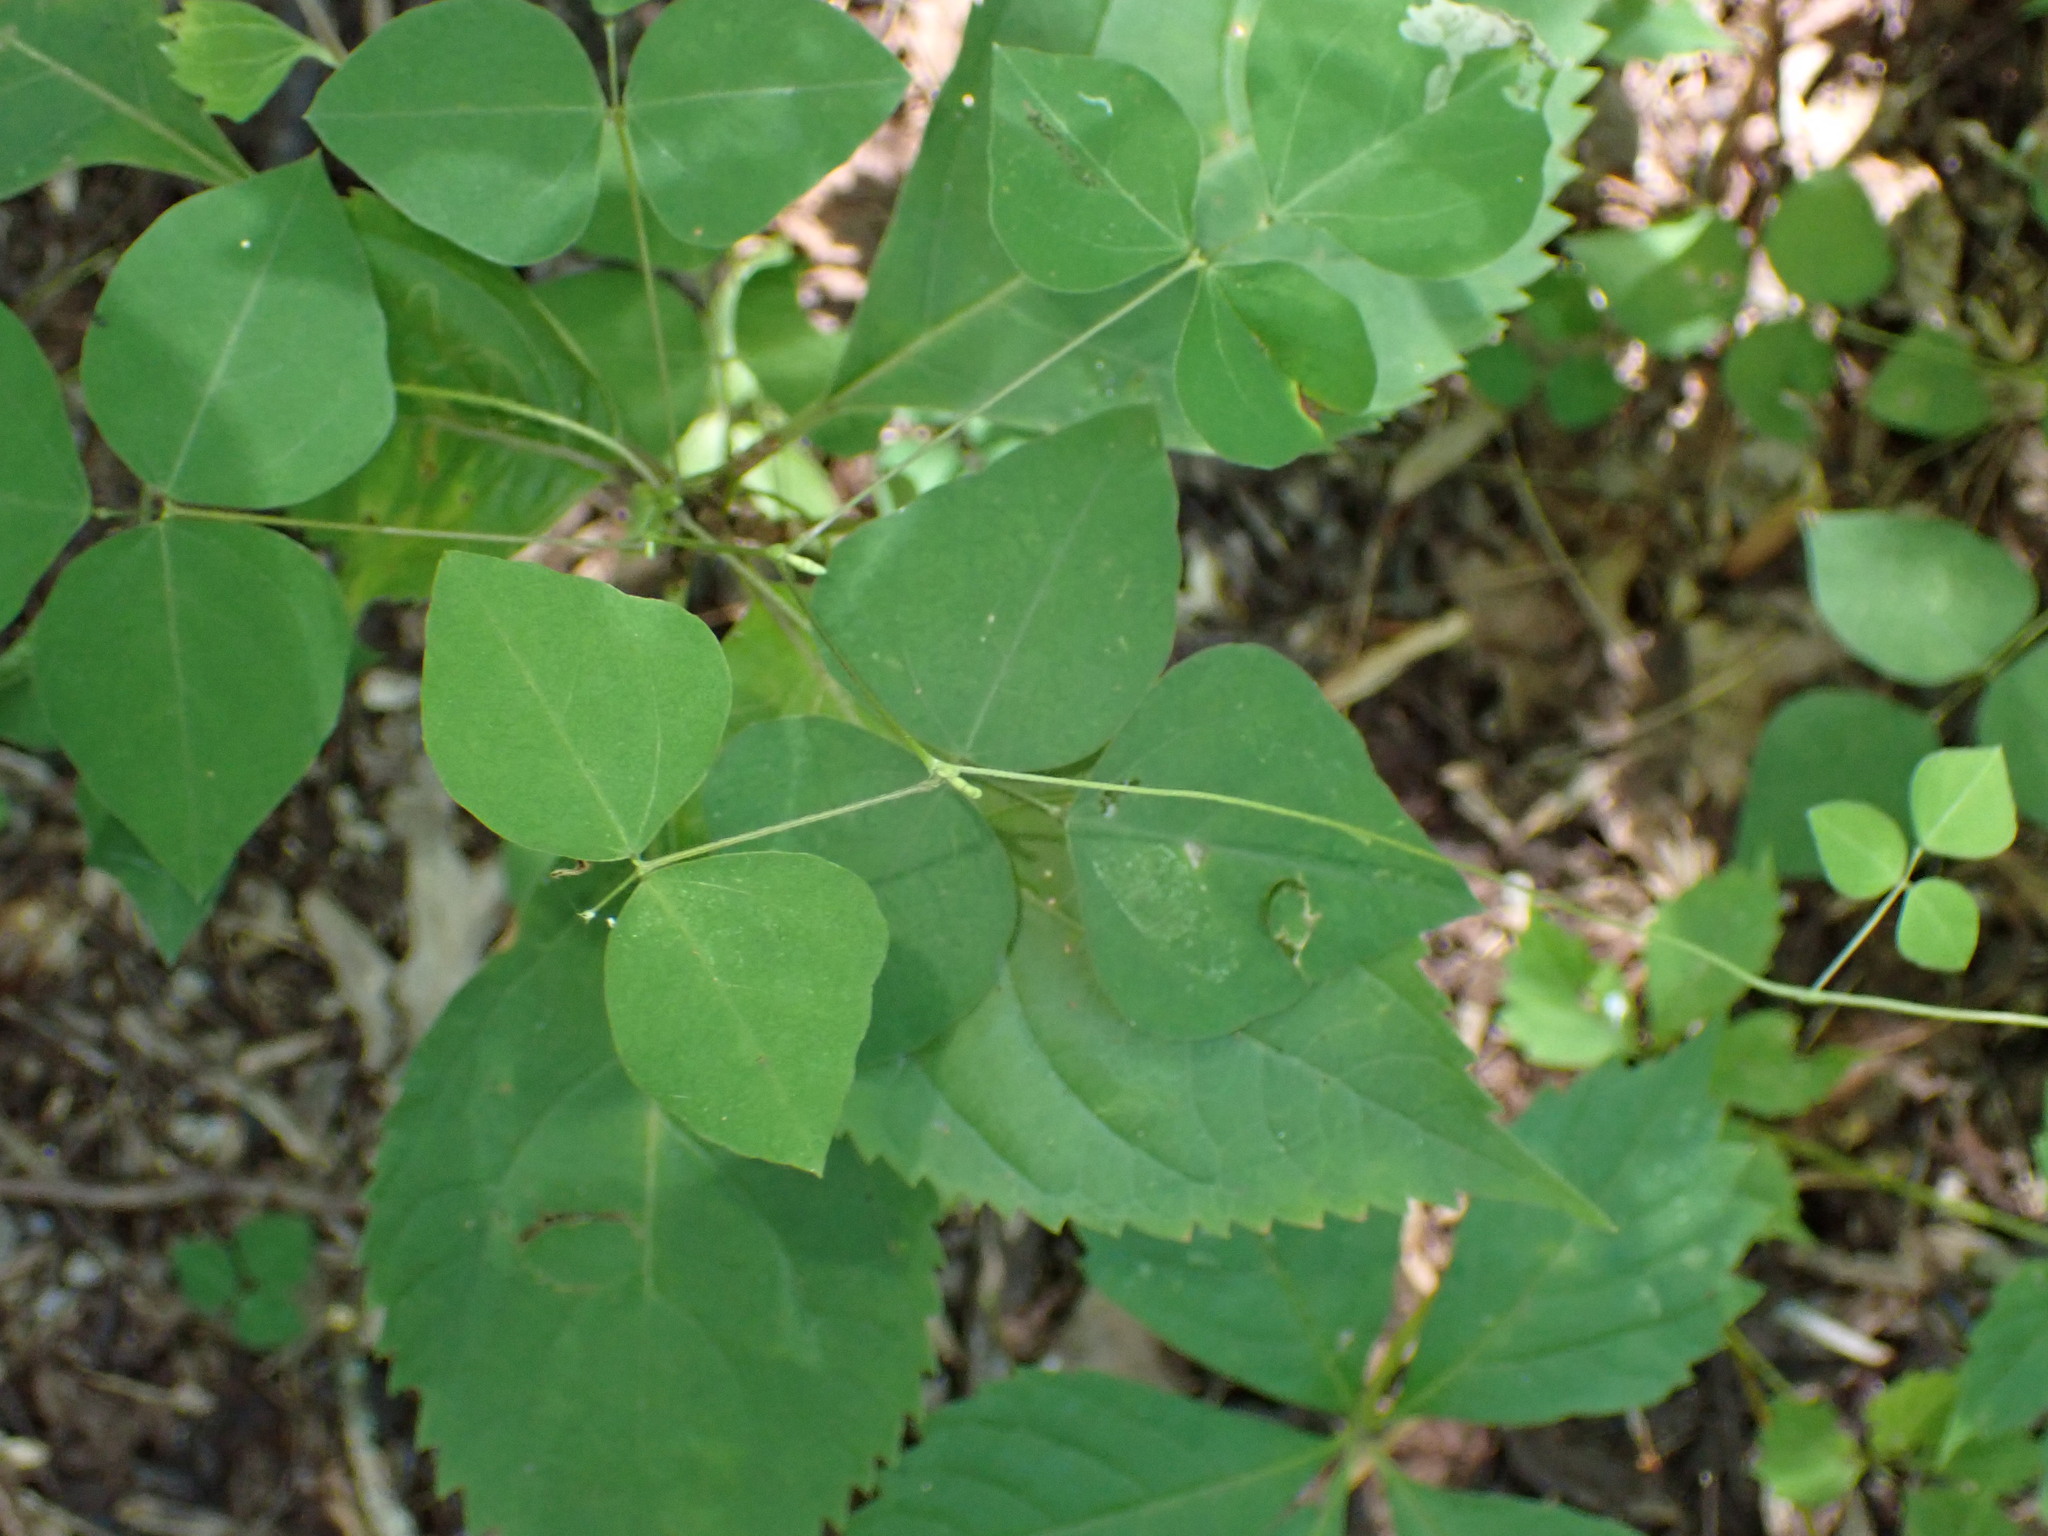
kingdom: Plantae
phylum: Tracheophyta
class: Magnoliopsida
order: Fabales
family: Fabaceae
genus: Amphicarpaea
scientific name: Amphicarpaea bracteata
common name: American hog peanut
